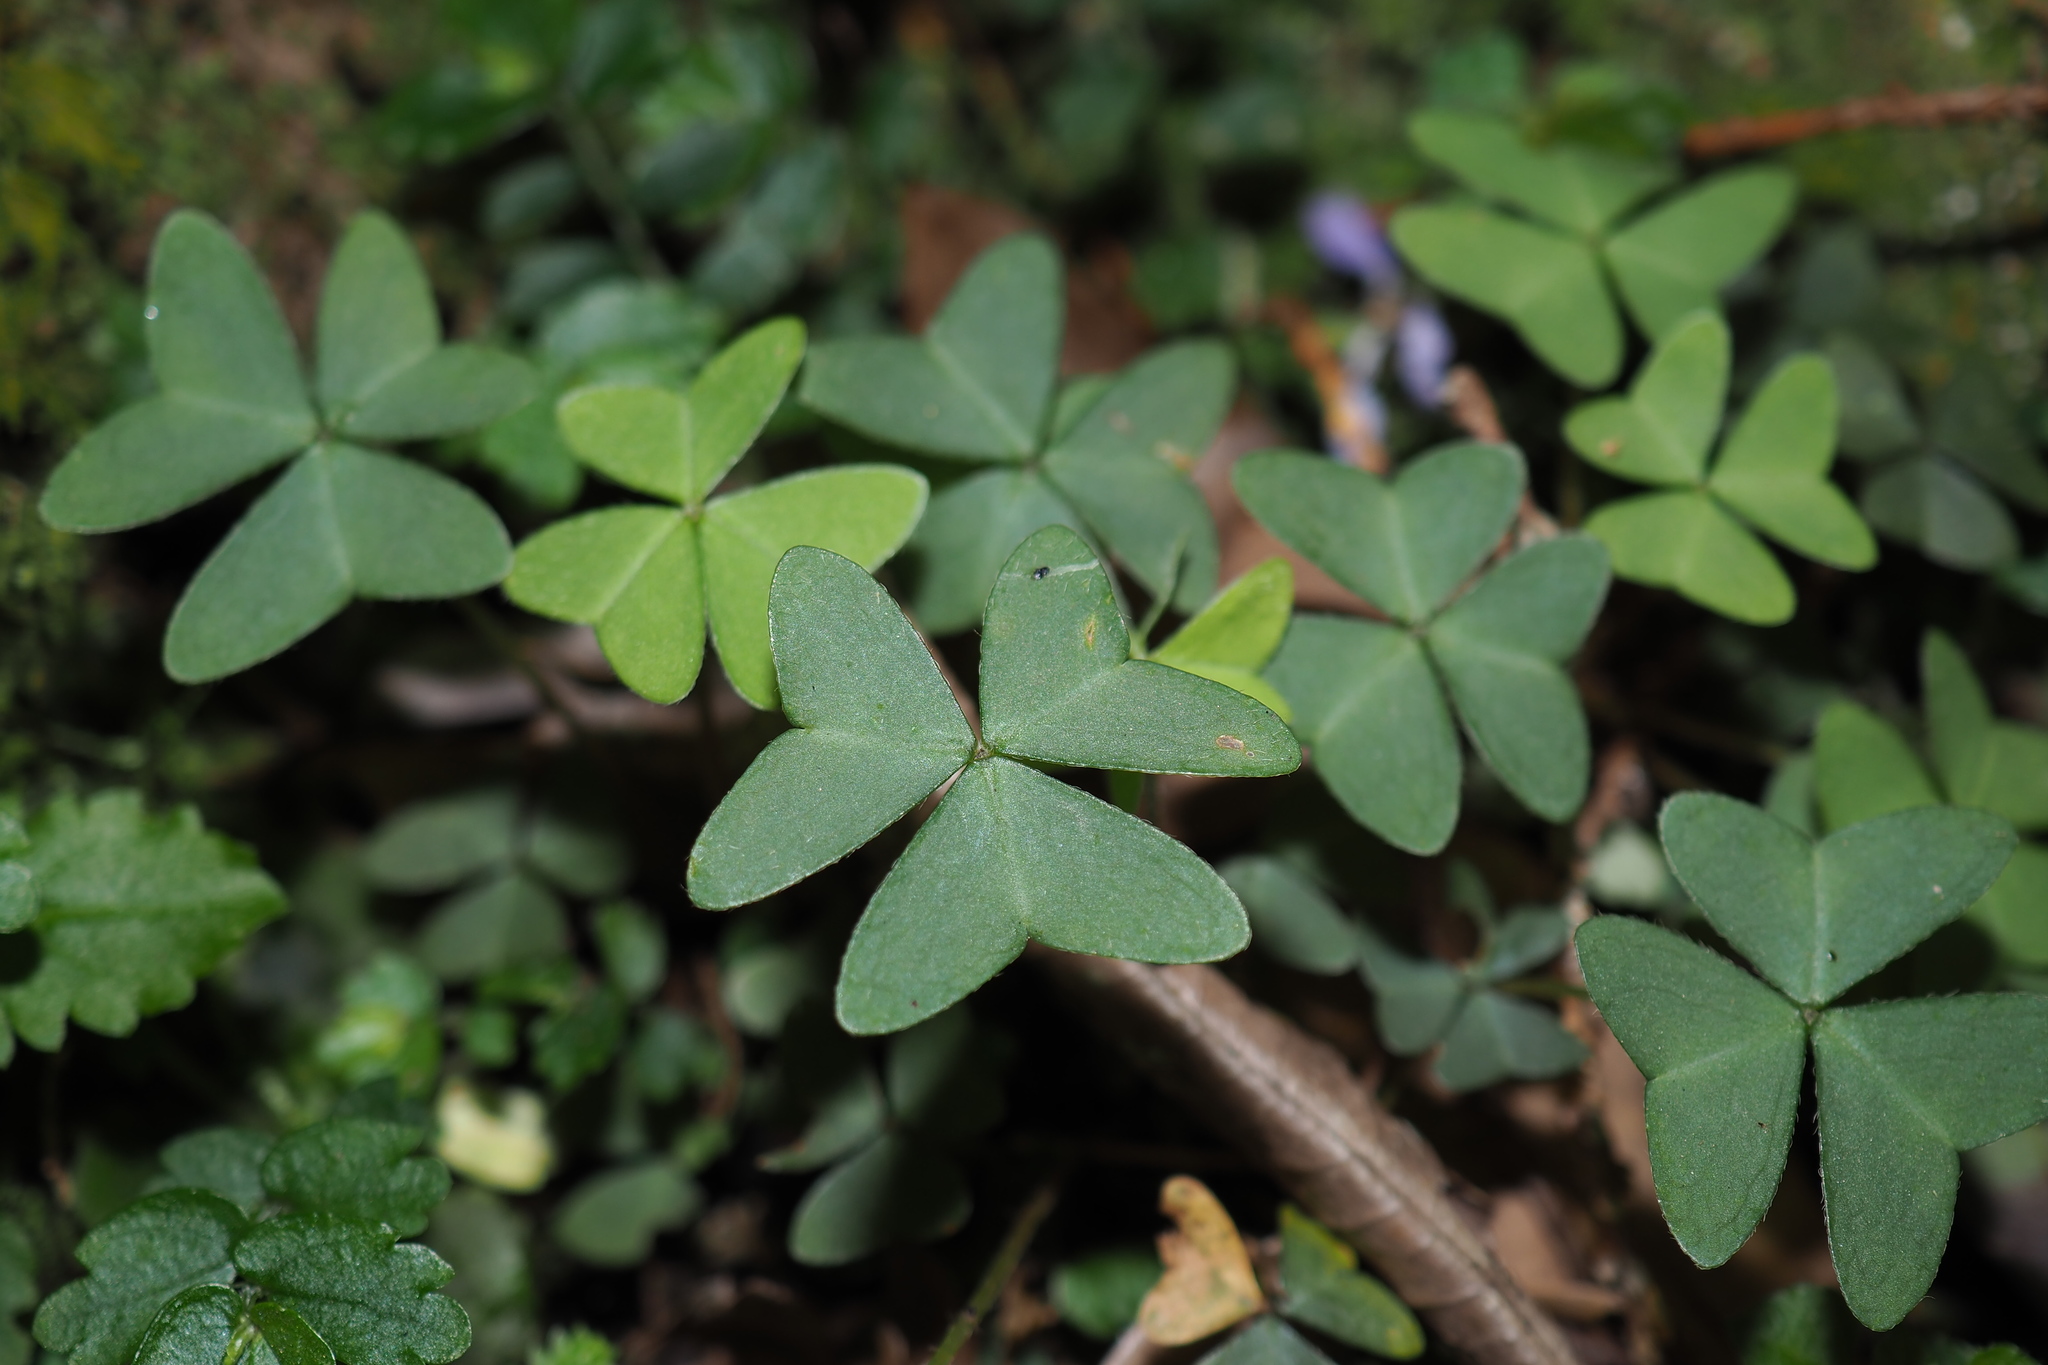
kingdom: Plantae
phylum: Tracheophyta
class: Magnoliopsida
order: Oxalidales
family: Oxalidaceae
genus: Oxalis
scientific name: Oxalis griffithii
